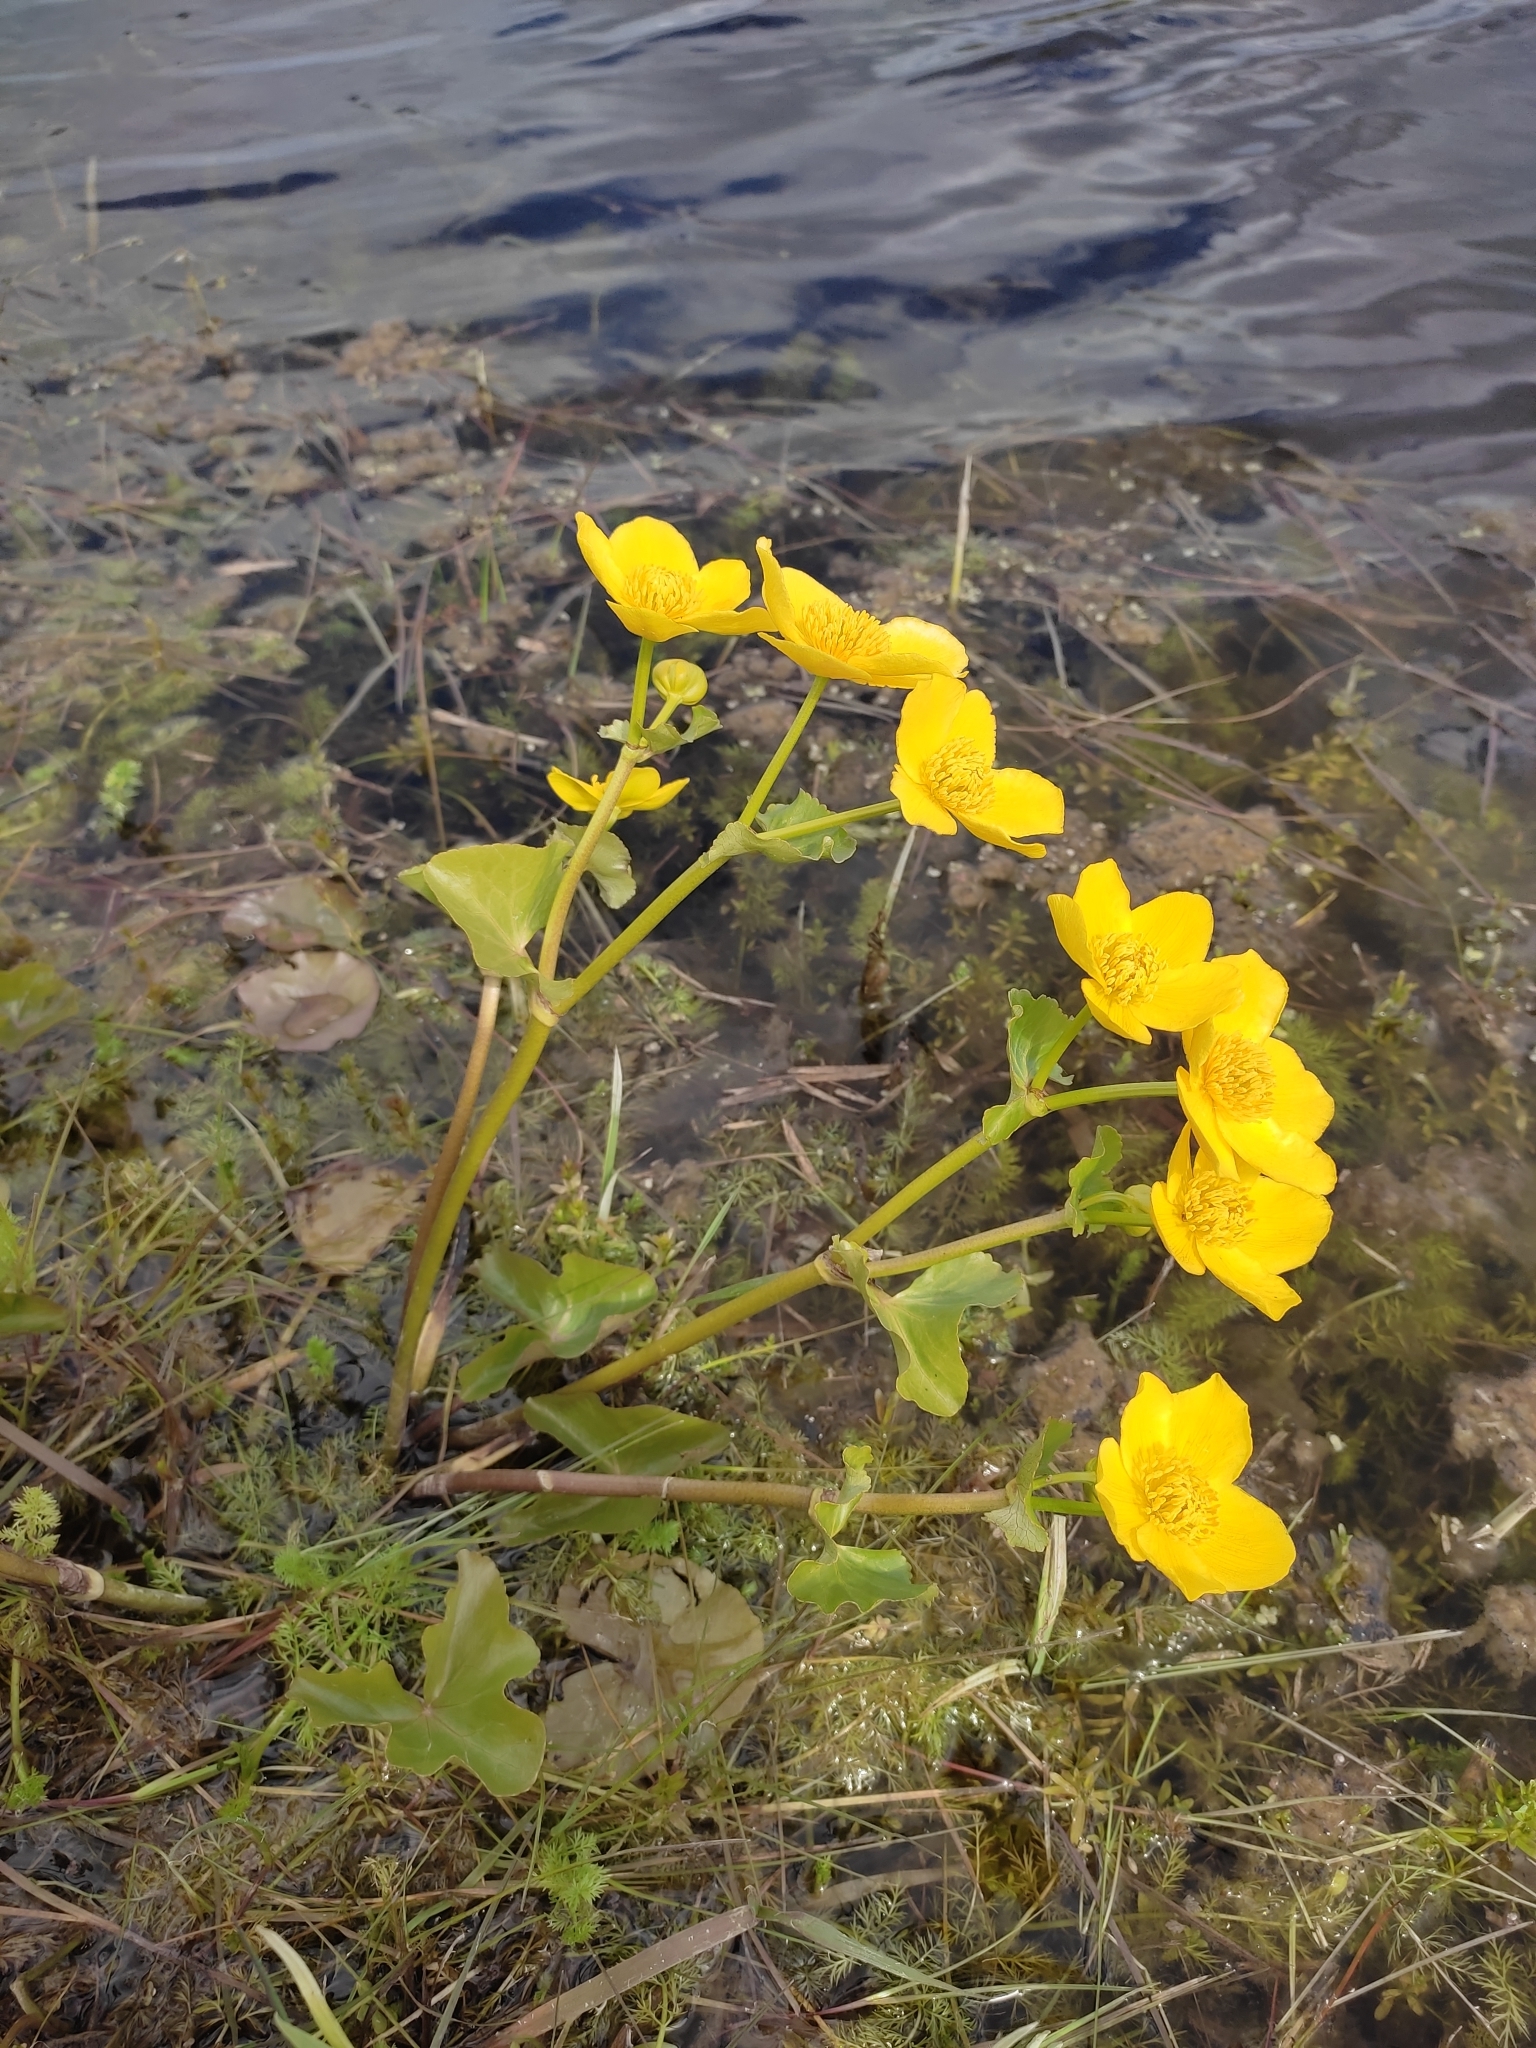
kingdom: Plantae
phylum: Tracheophyta
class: Magnoliopsida
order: Ranunculales
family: Ranunculaceae
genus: Caltha
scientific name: Caltha palustris
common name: Marsh marigold
